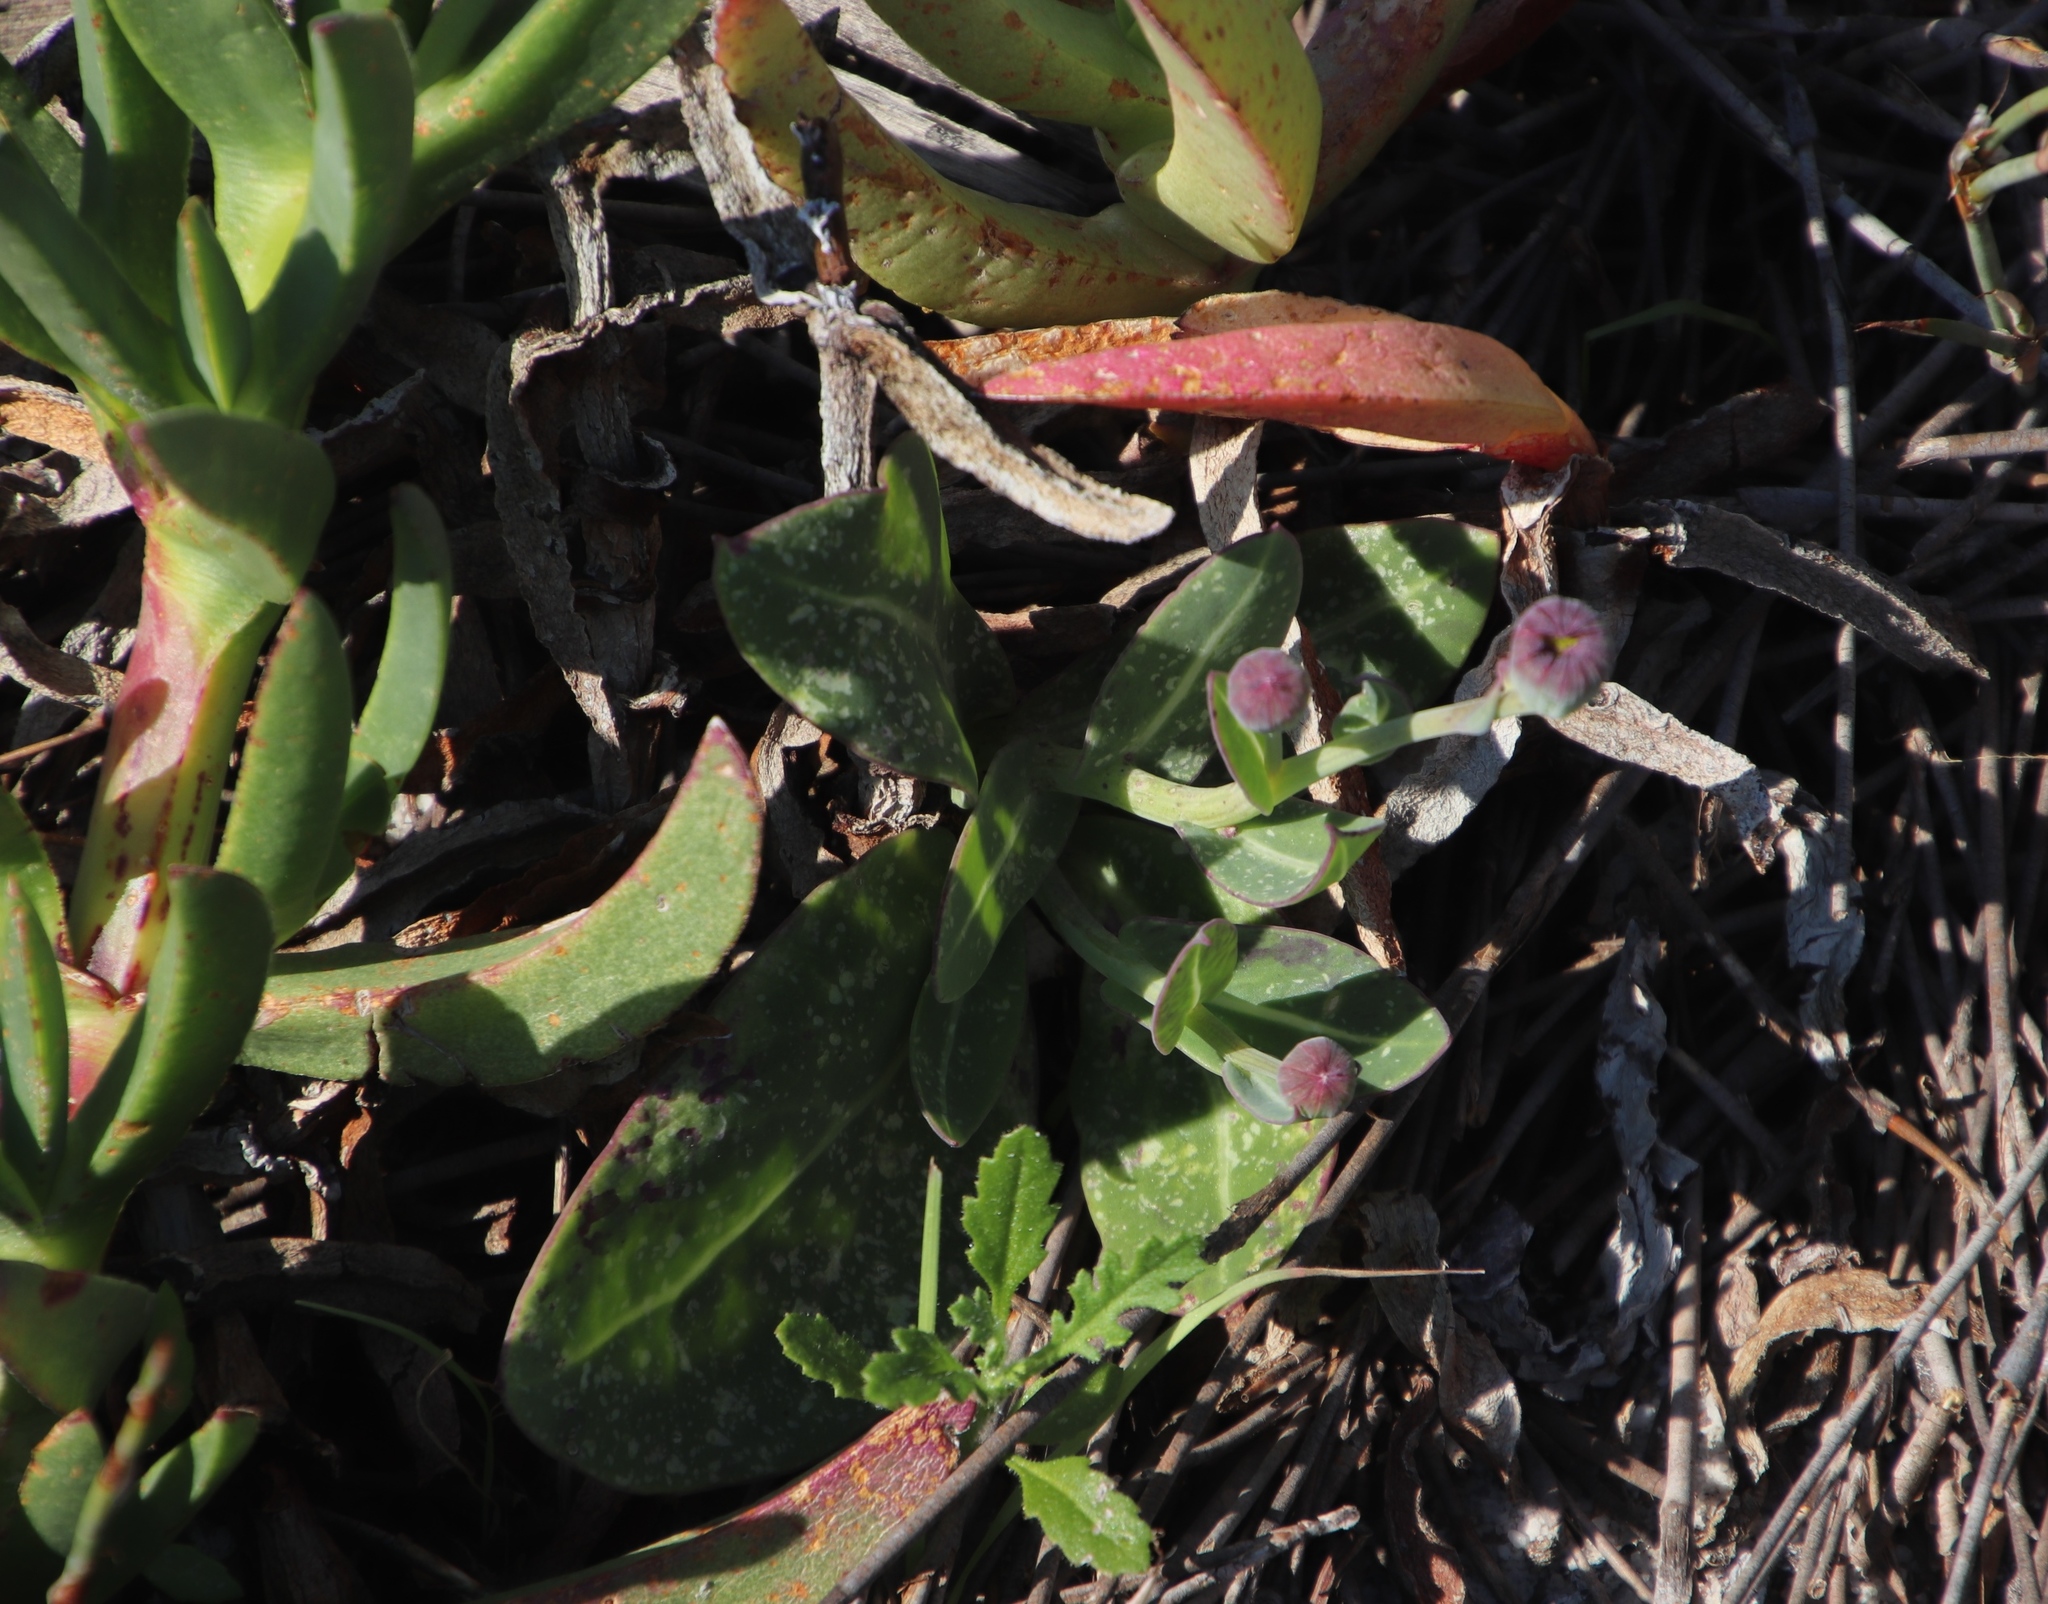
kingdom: Plantae
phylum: Tracheophyta
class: Magnoliopsida
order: Asterales
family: Asteraceae
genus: Othonna
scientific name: Othonna gymnodiscus
